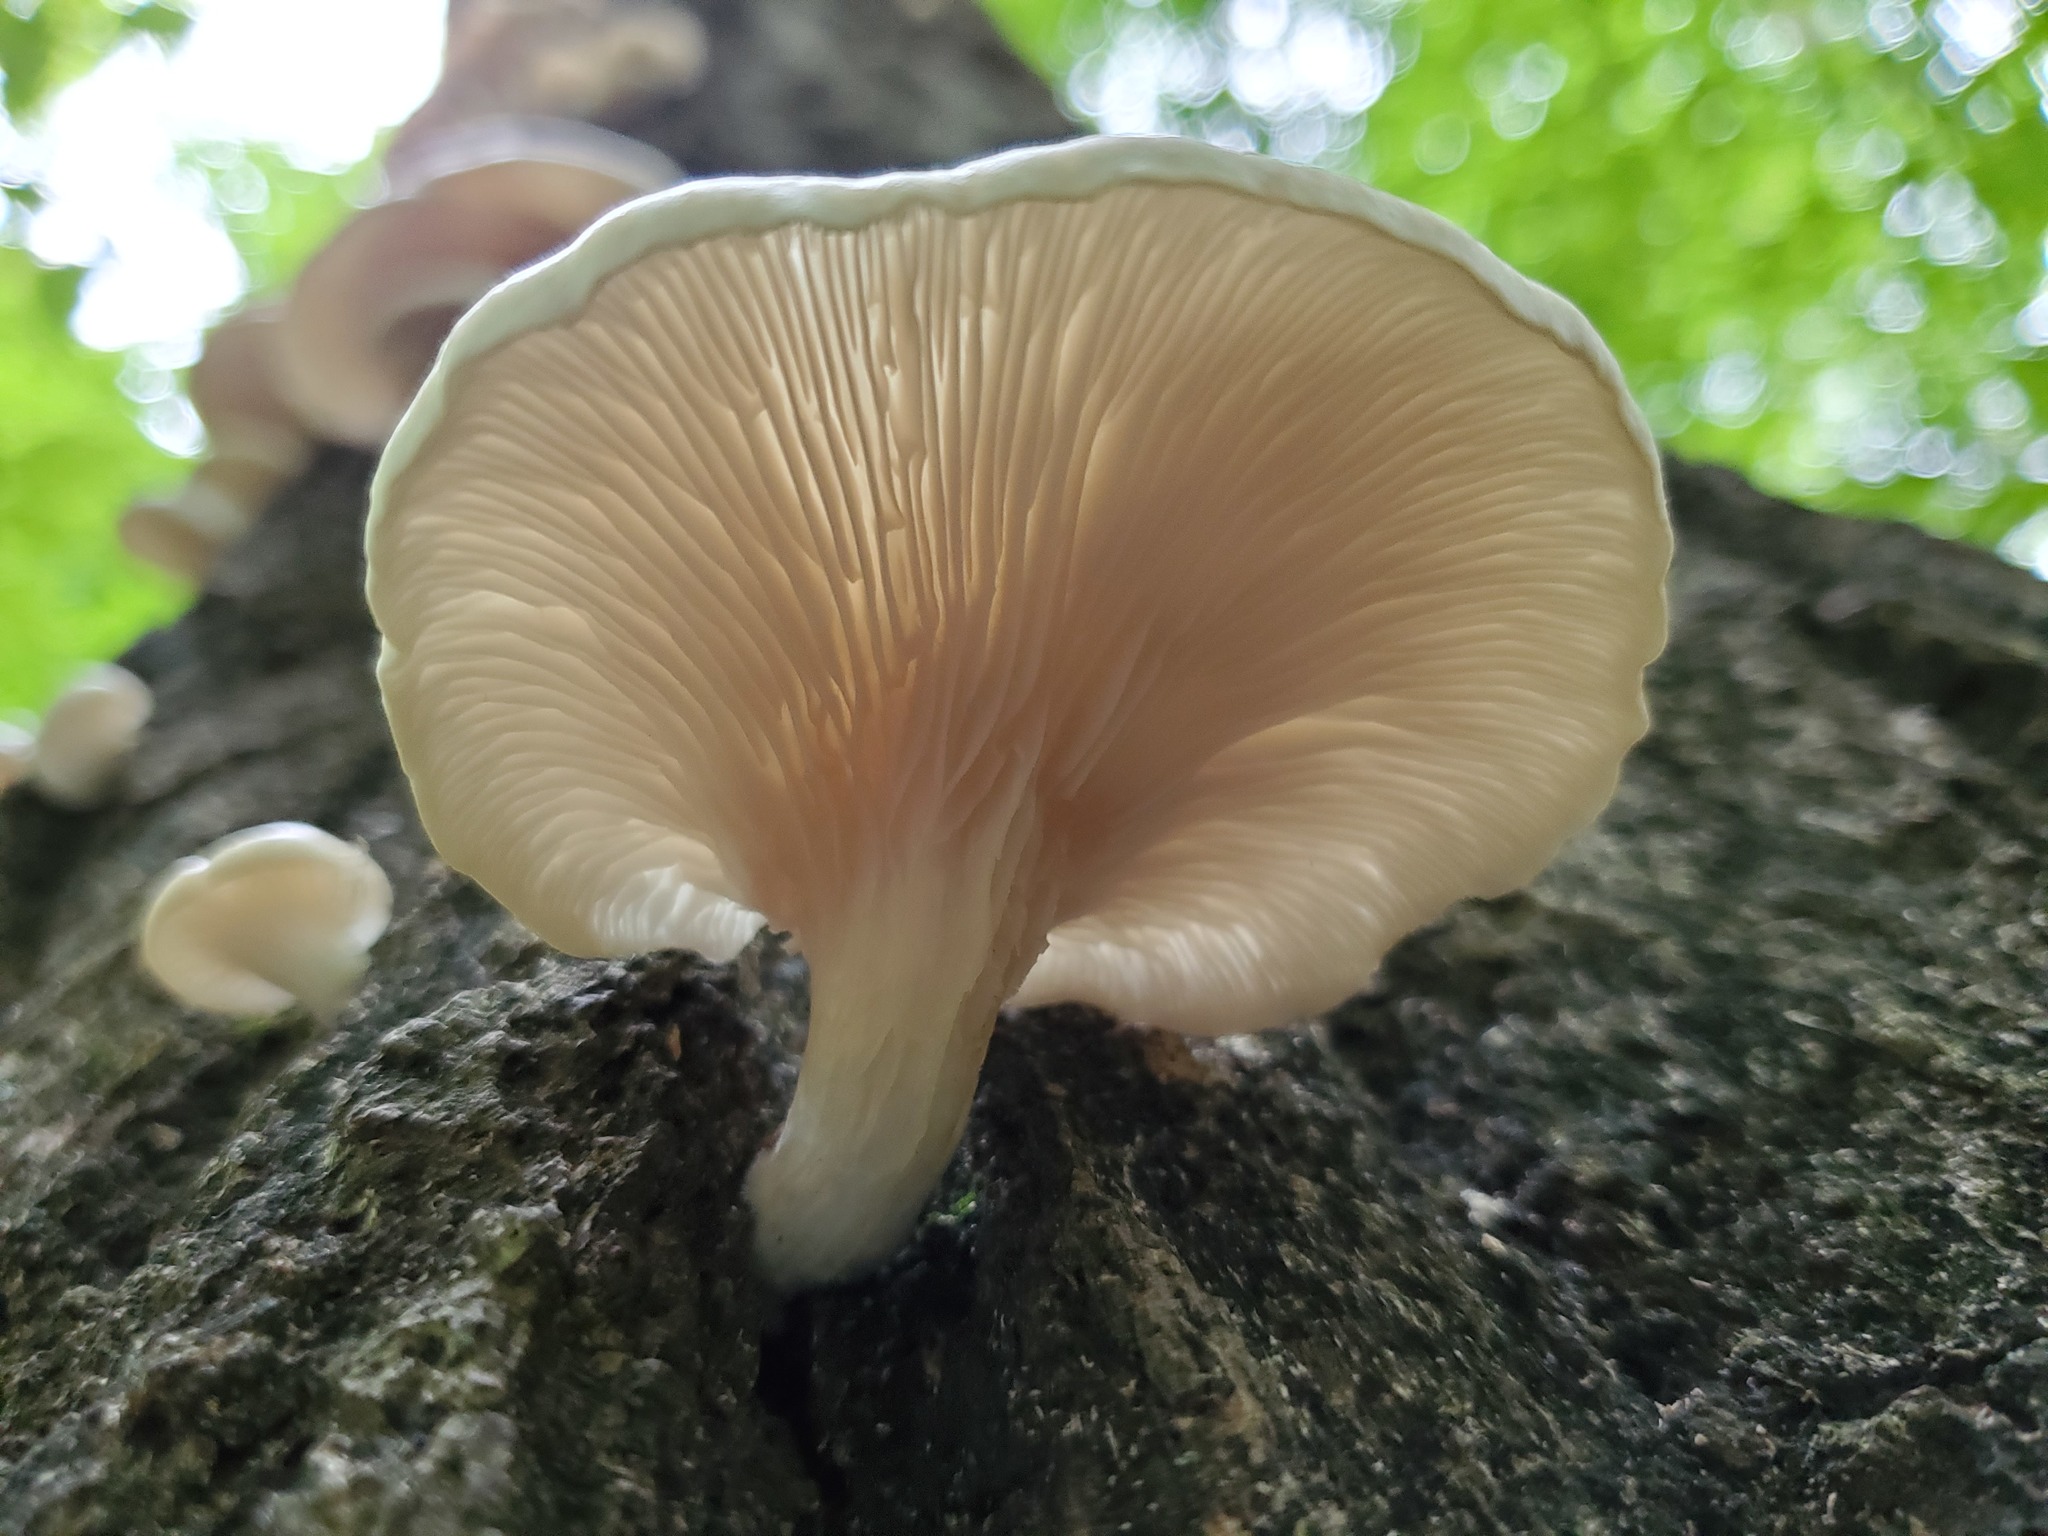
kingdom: Fungi
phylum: Basidiomycota
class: Agaricomycetes
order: Agaricales
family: Pleurotaceae
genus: Pleurotus
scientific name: Pleurotus pulmonarius
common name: Pale oyster
